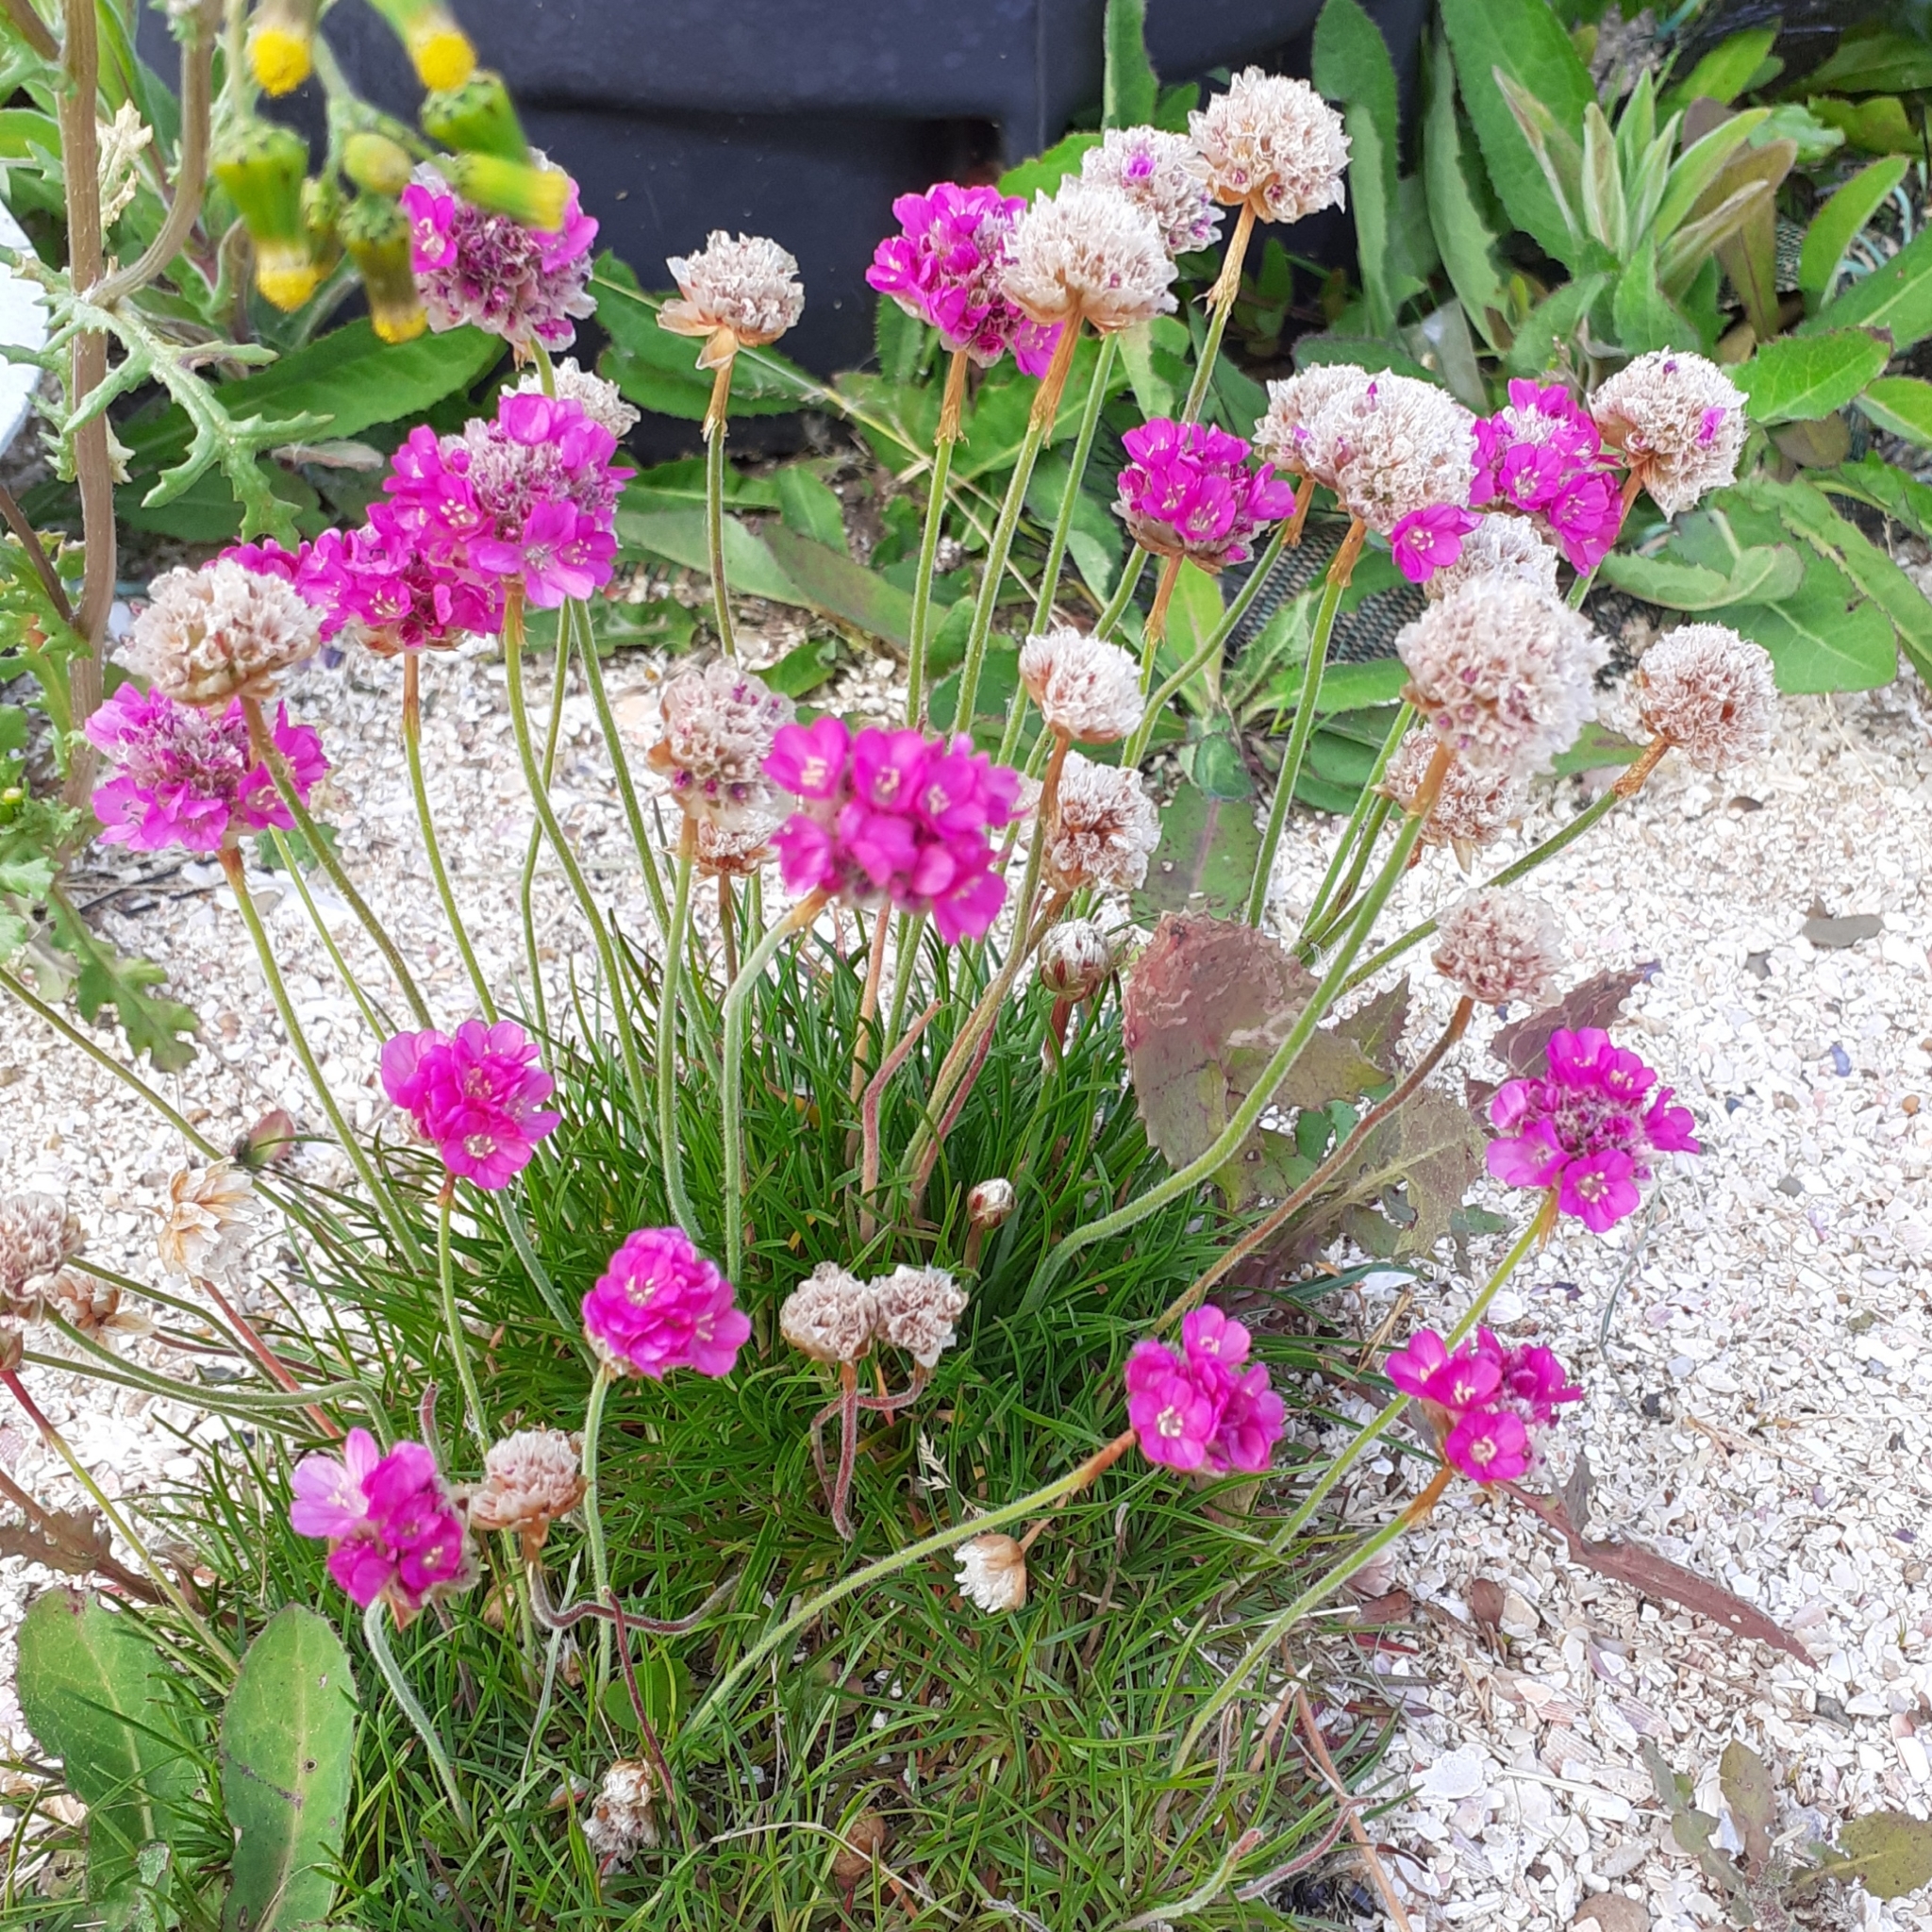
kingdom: Plantae
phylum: Tracheophyta
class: Magnoliopsida
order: Caryophyllales
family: Plumbaginaceae
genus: Armeria
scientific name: Armeria maritima
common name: Thrift
